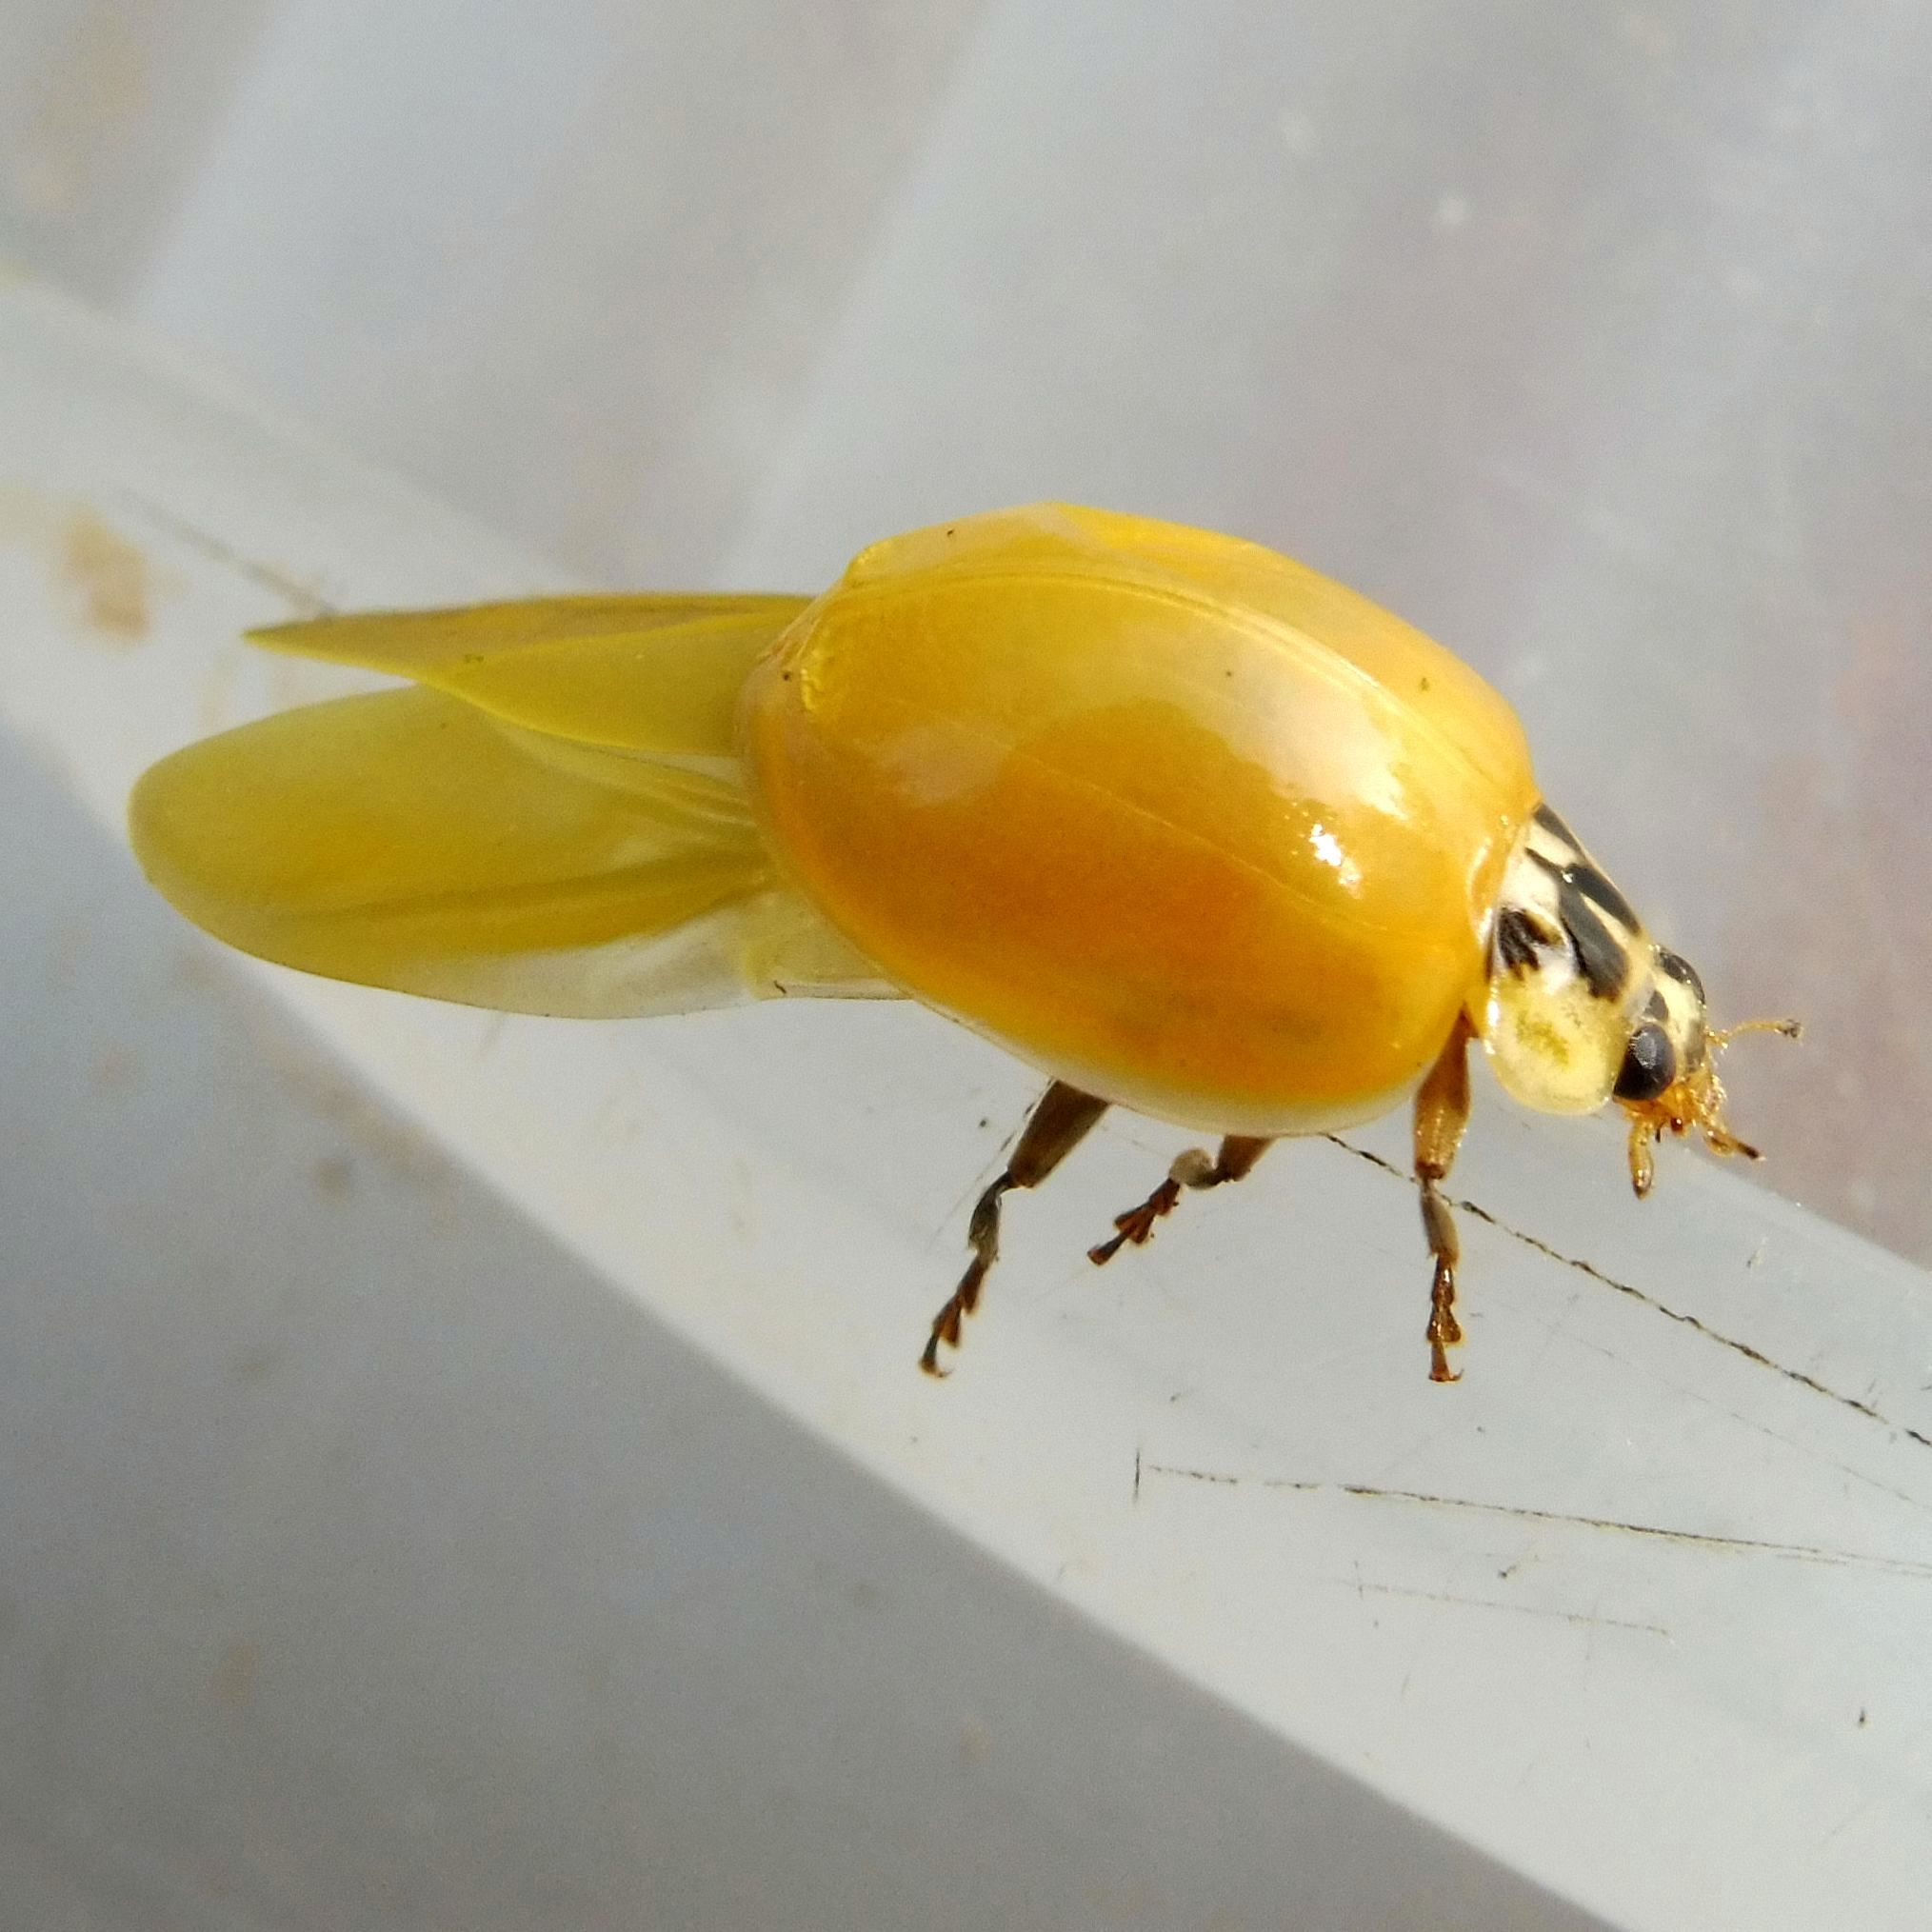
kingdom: Animalia
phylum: Arthropoda
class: Insecta
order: Coleoptera
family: Coccinellidae
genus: Harmonia
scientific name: Harmonia axyridis
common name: Harlequin ladybird
